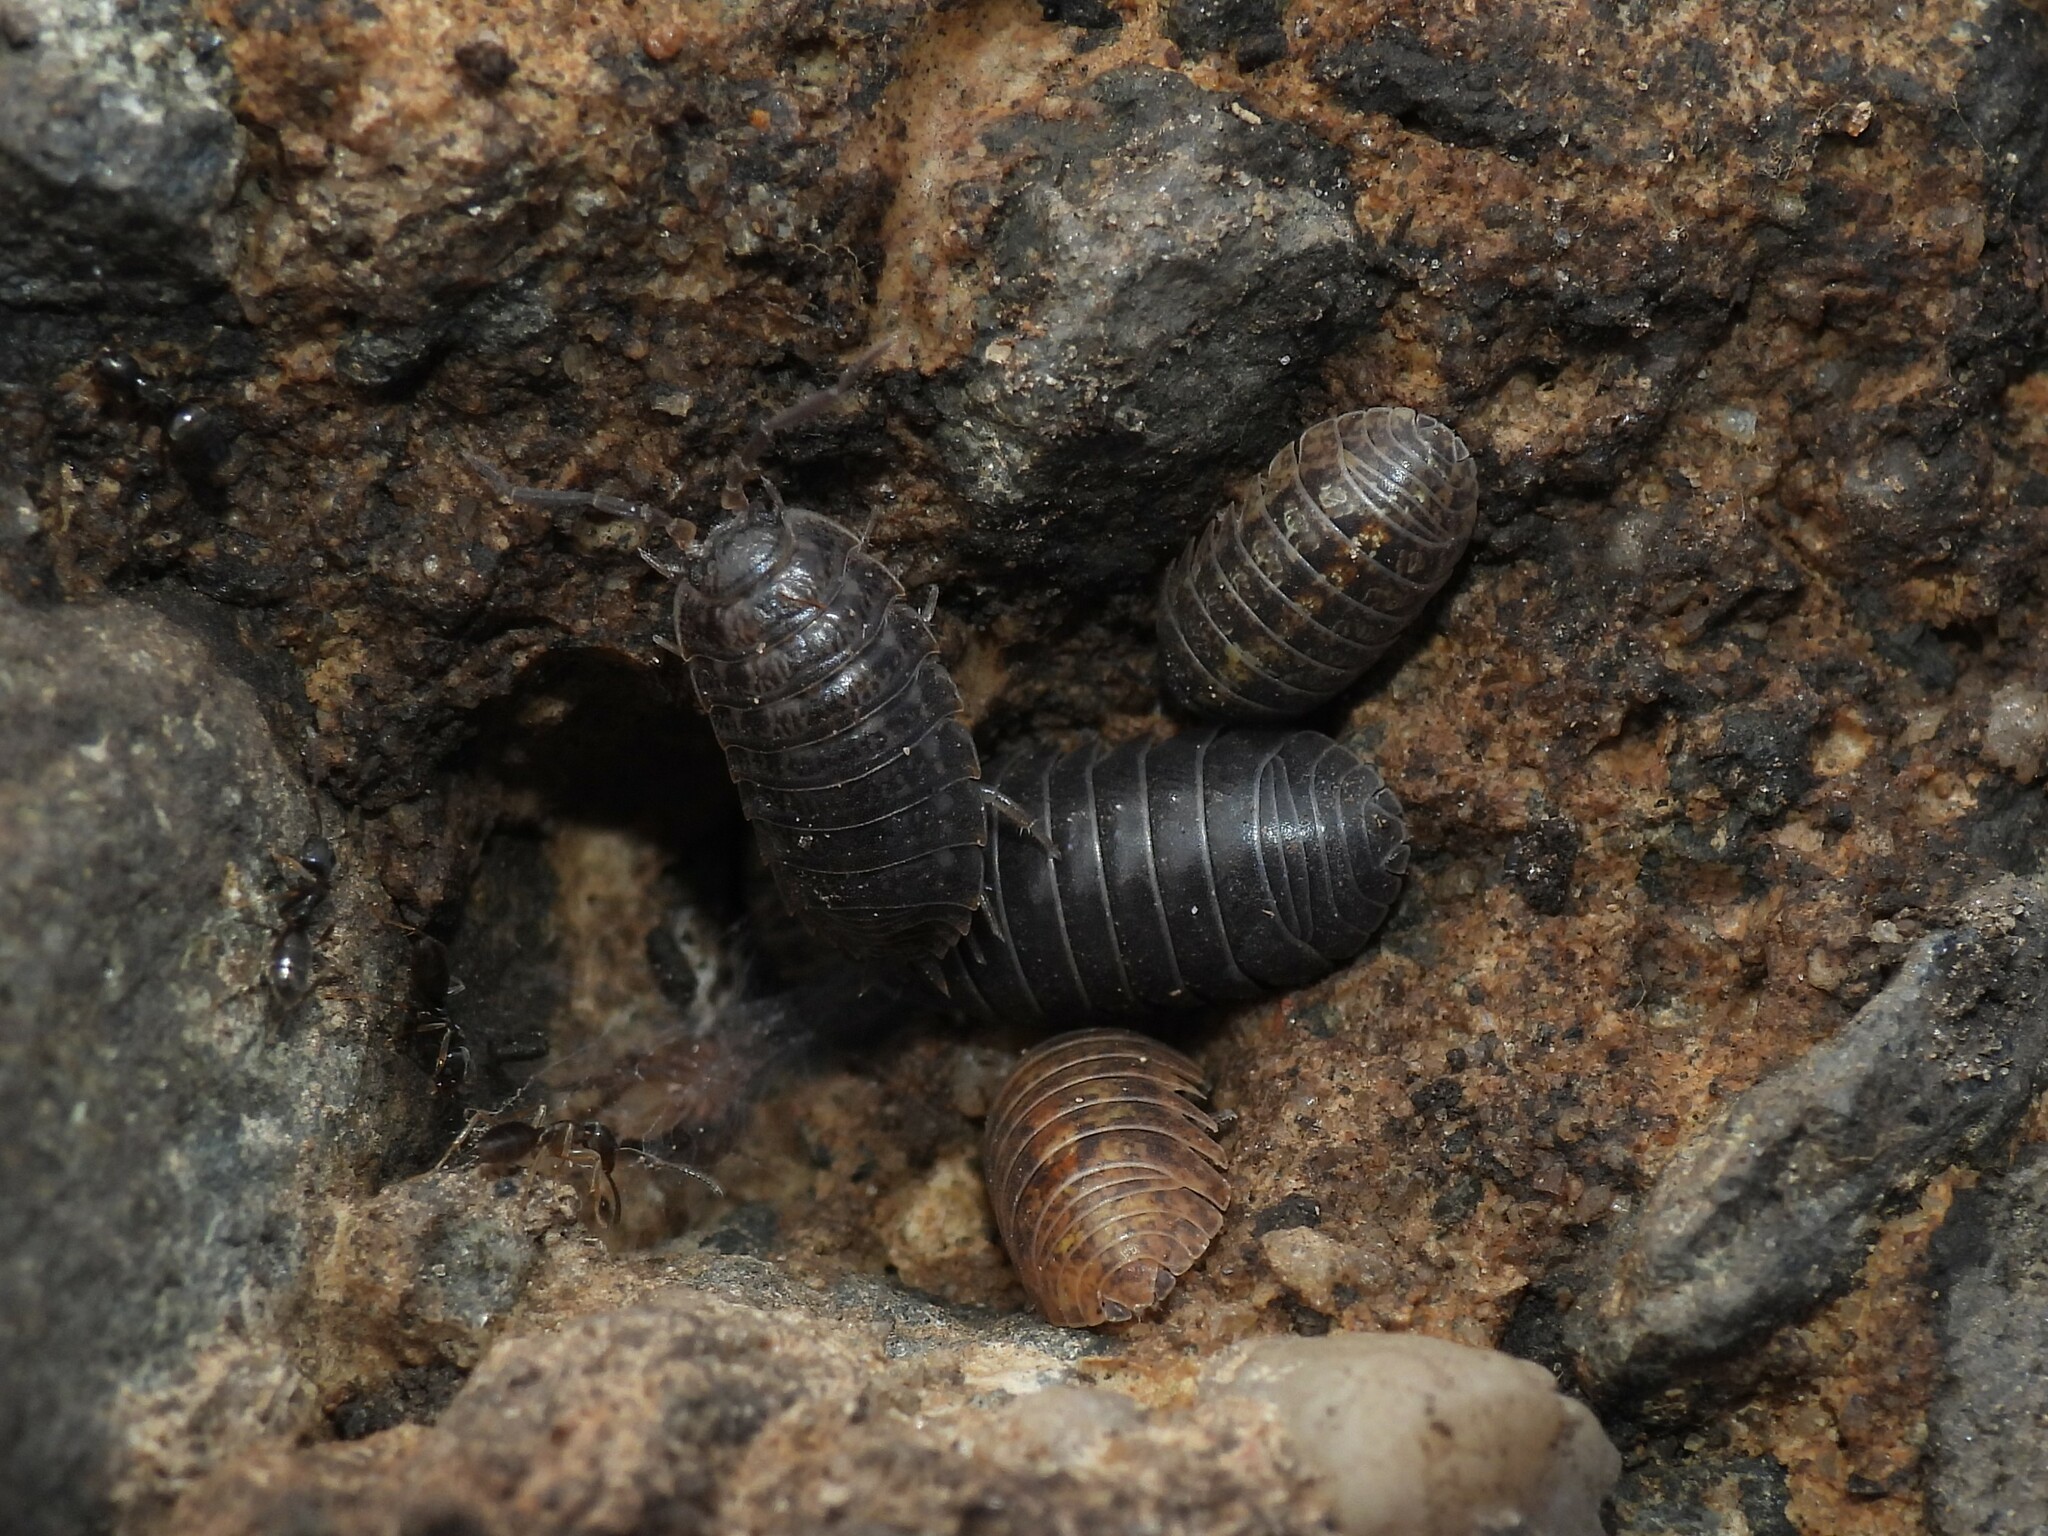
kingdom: Animalia
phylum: Arthropoda
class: Malacostraca
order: Isopoda
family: Armadillidiidae
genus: Armadillidium
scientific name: Armadillidium vulgare
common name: Common pill woodlouse
